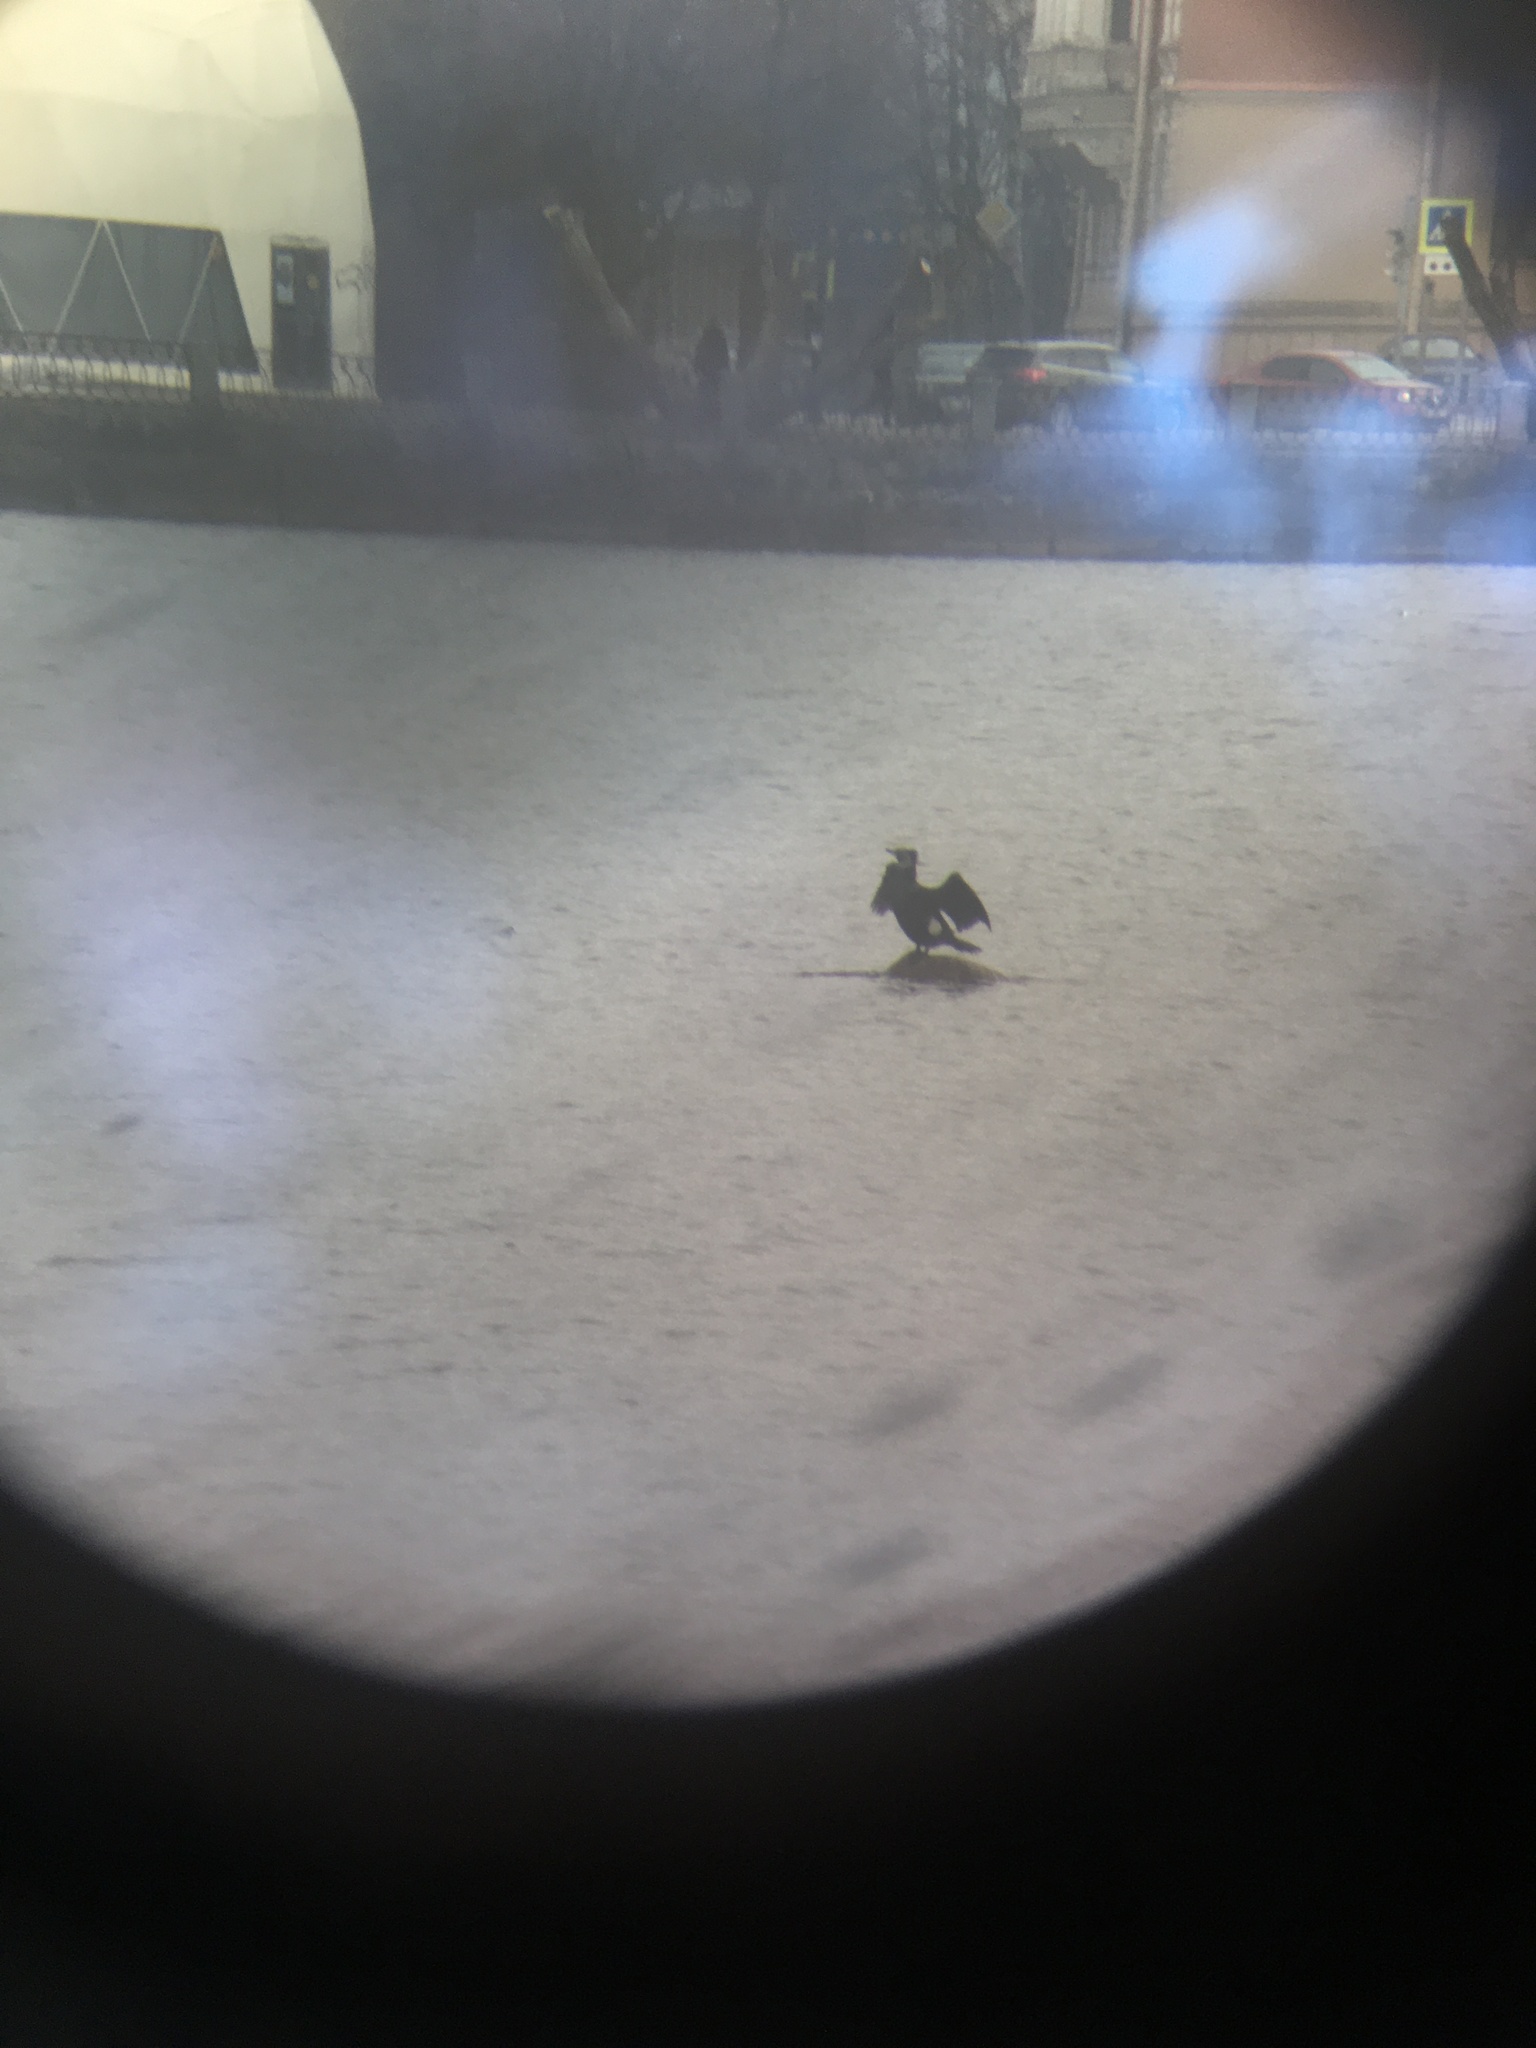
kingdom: Animalia
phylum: Chordata
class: Aves
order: Suliformes
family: Phalacrocoracidae
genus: Phalacrocorax
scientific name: Phalacrocorax carbo
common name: Great cormorant
